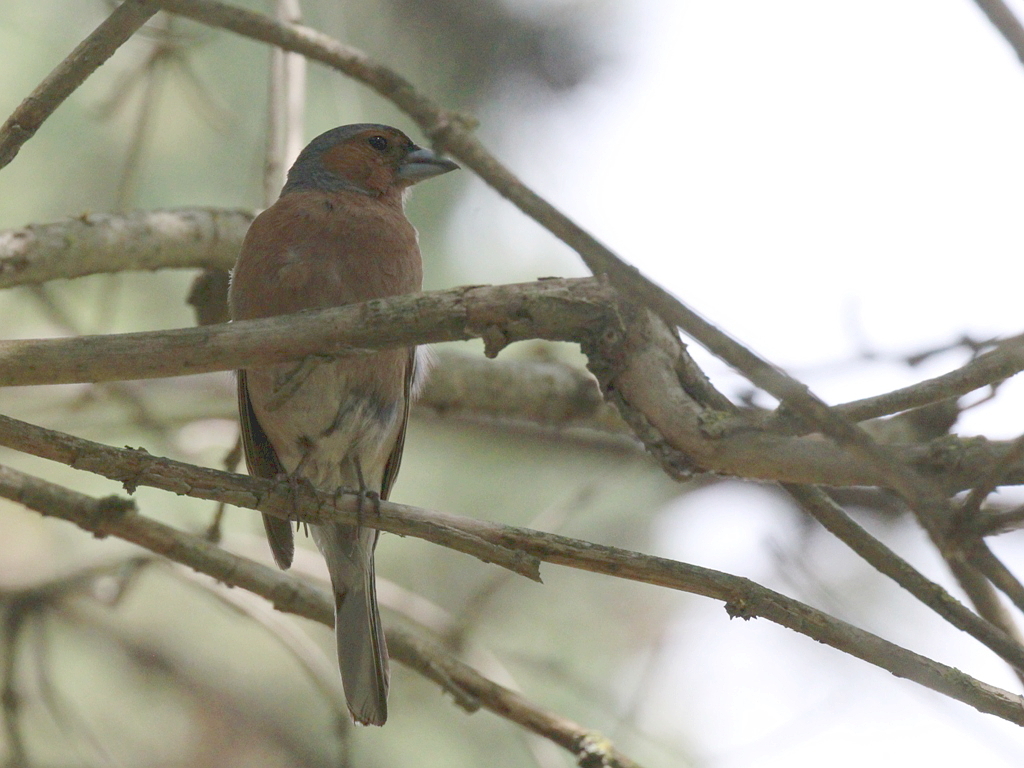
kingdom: Animalia
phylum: Chordata
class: Aves
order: Passeriformes
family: Fringillidae
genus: Fringilla
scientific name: Fringilla coelebs
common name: Common chaffinch
